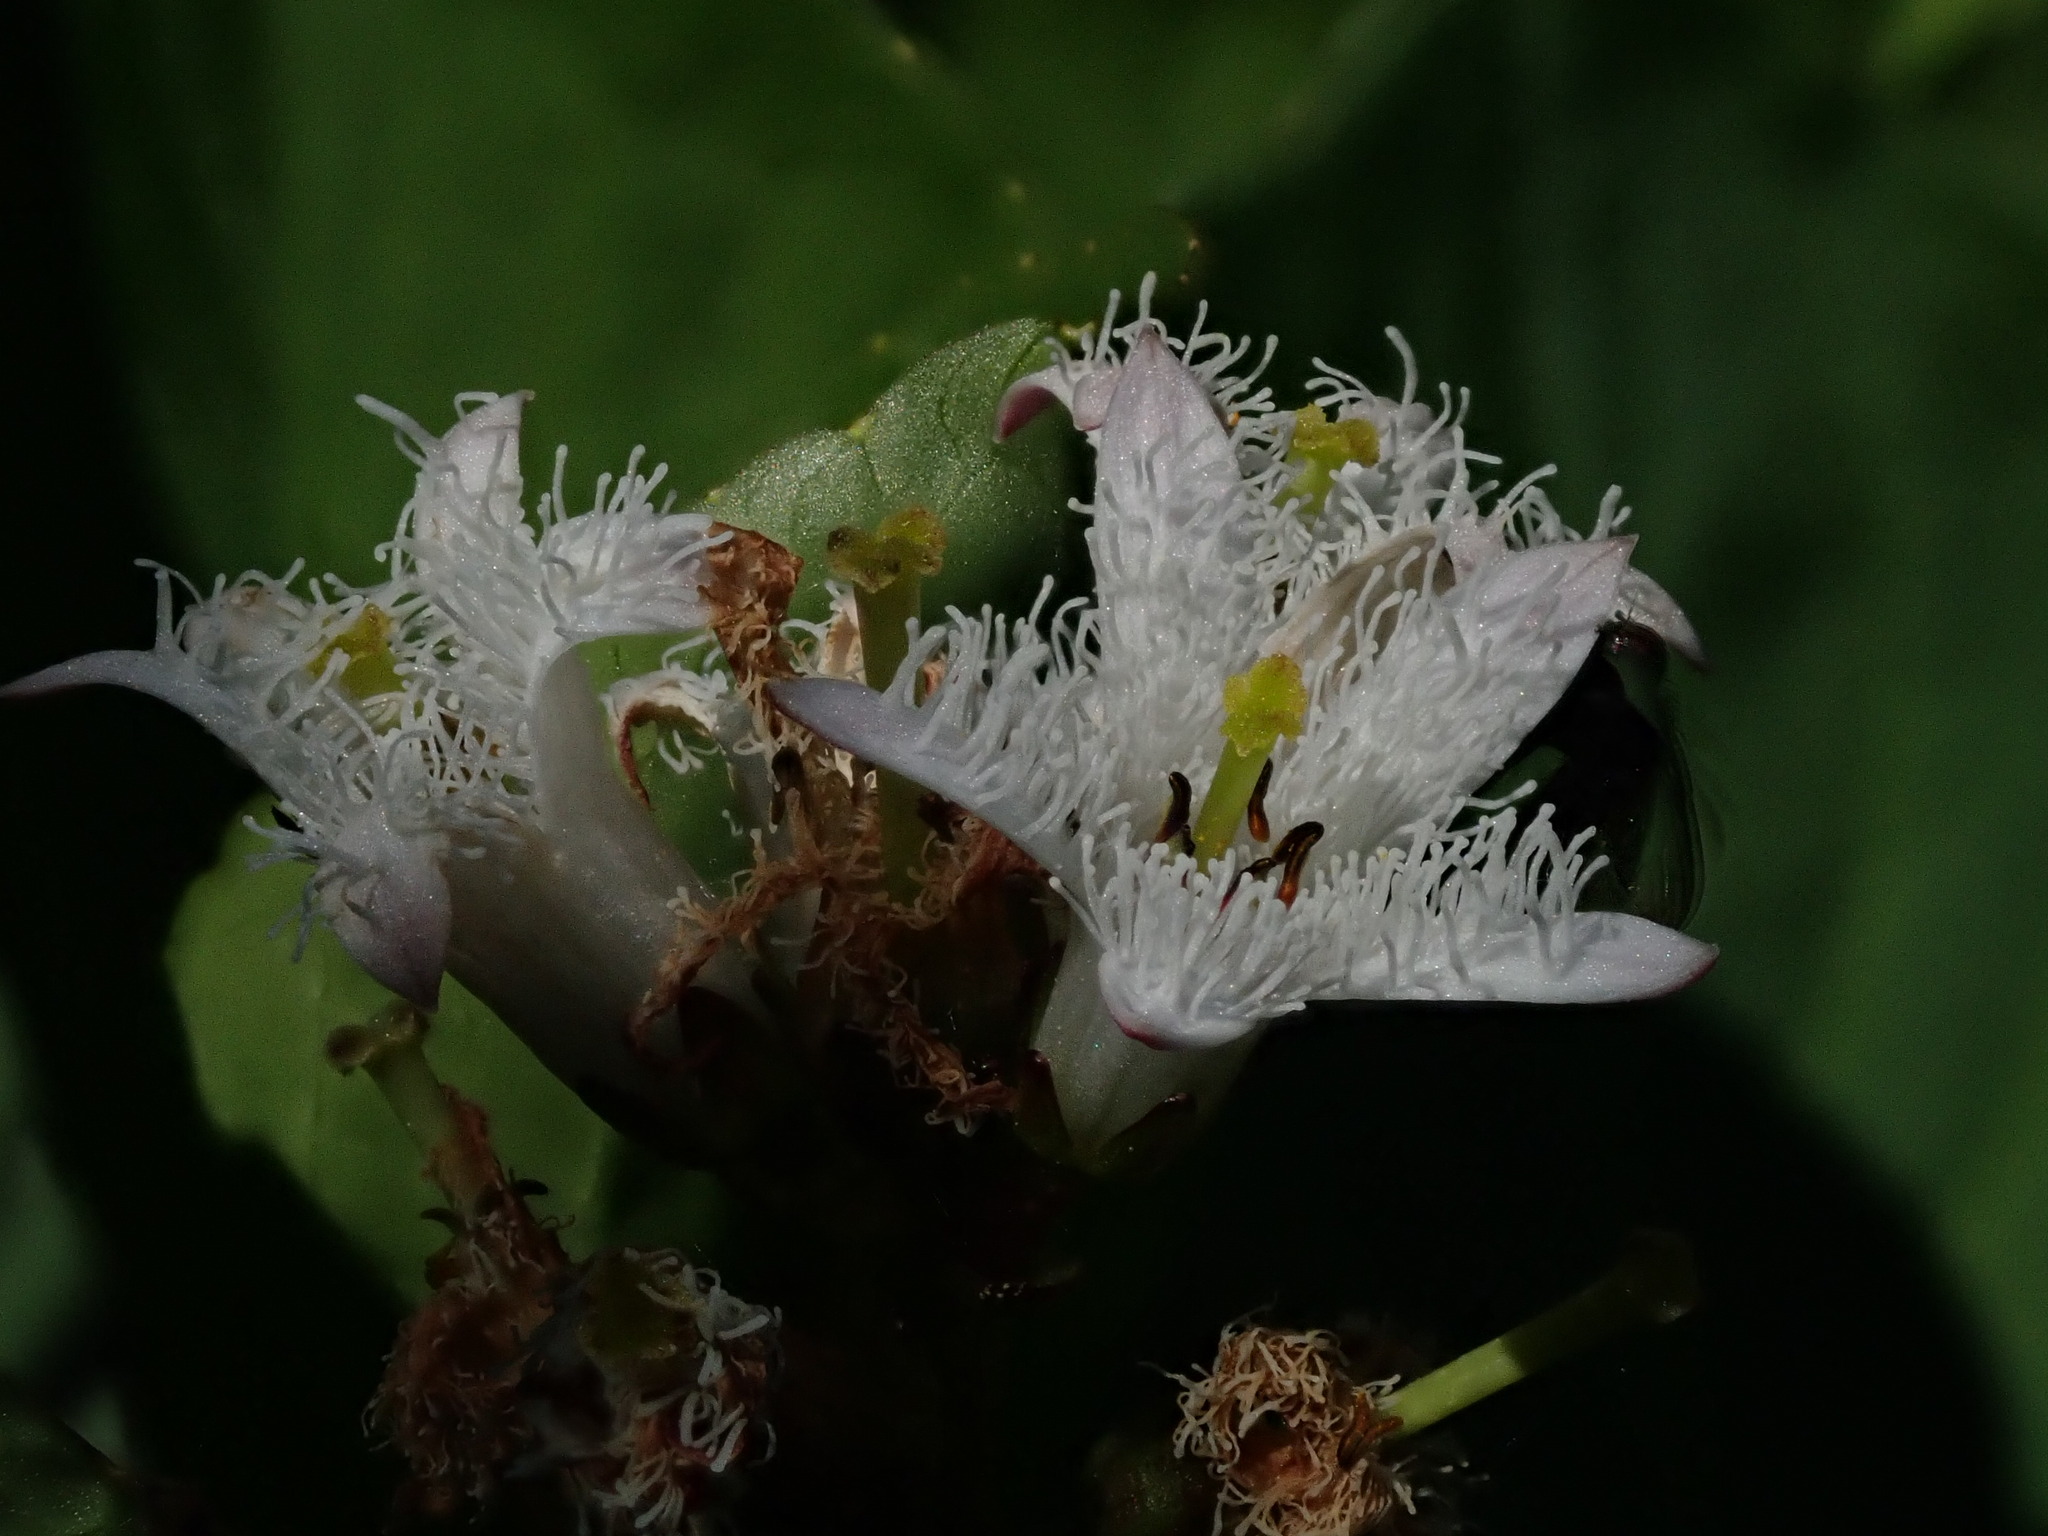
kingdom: Plantae
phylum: Tracheophyta
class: Magnoliopsida
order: Asterales
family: Menyanthaceae
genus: Menyanthes
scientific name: Menyanthes trifoliata
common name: Bogbean
